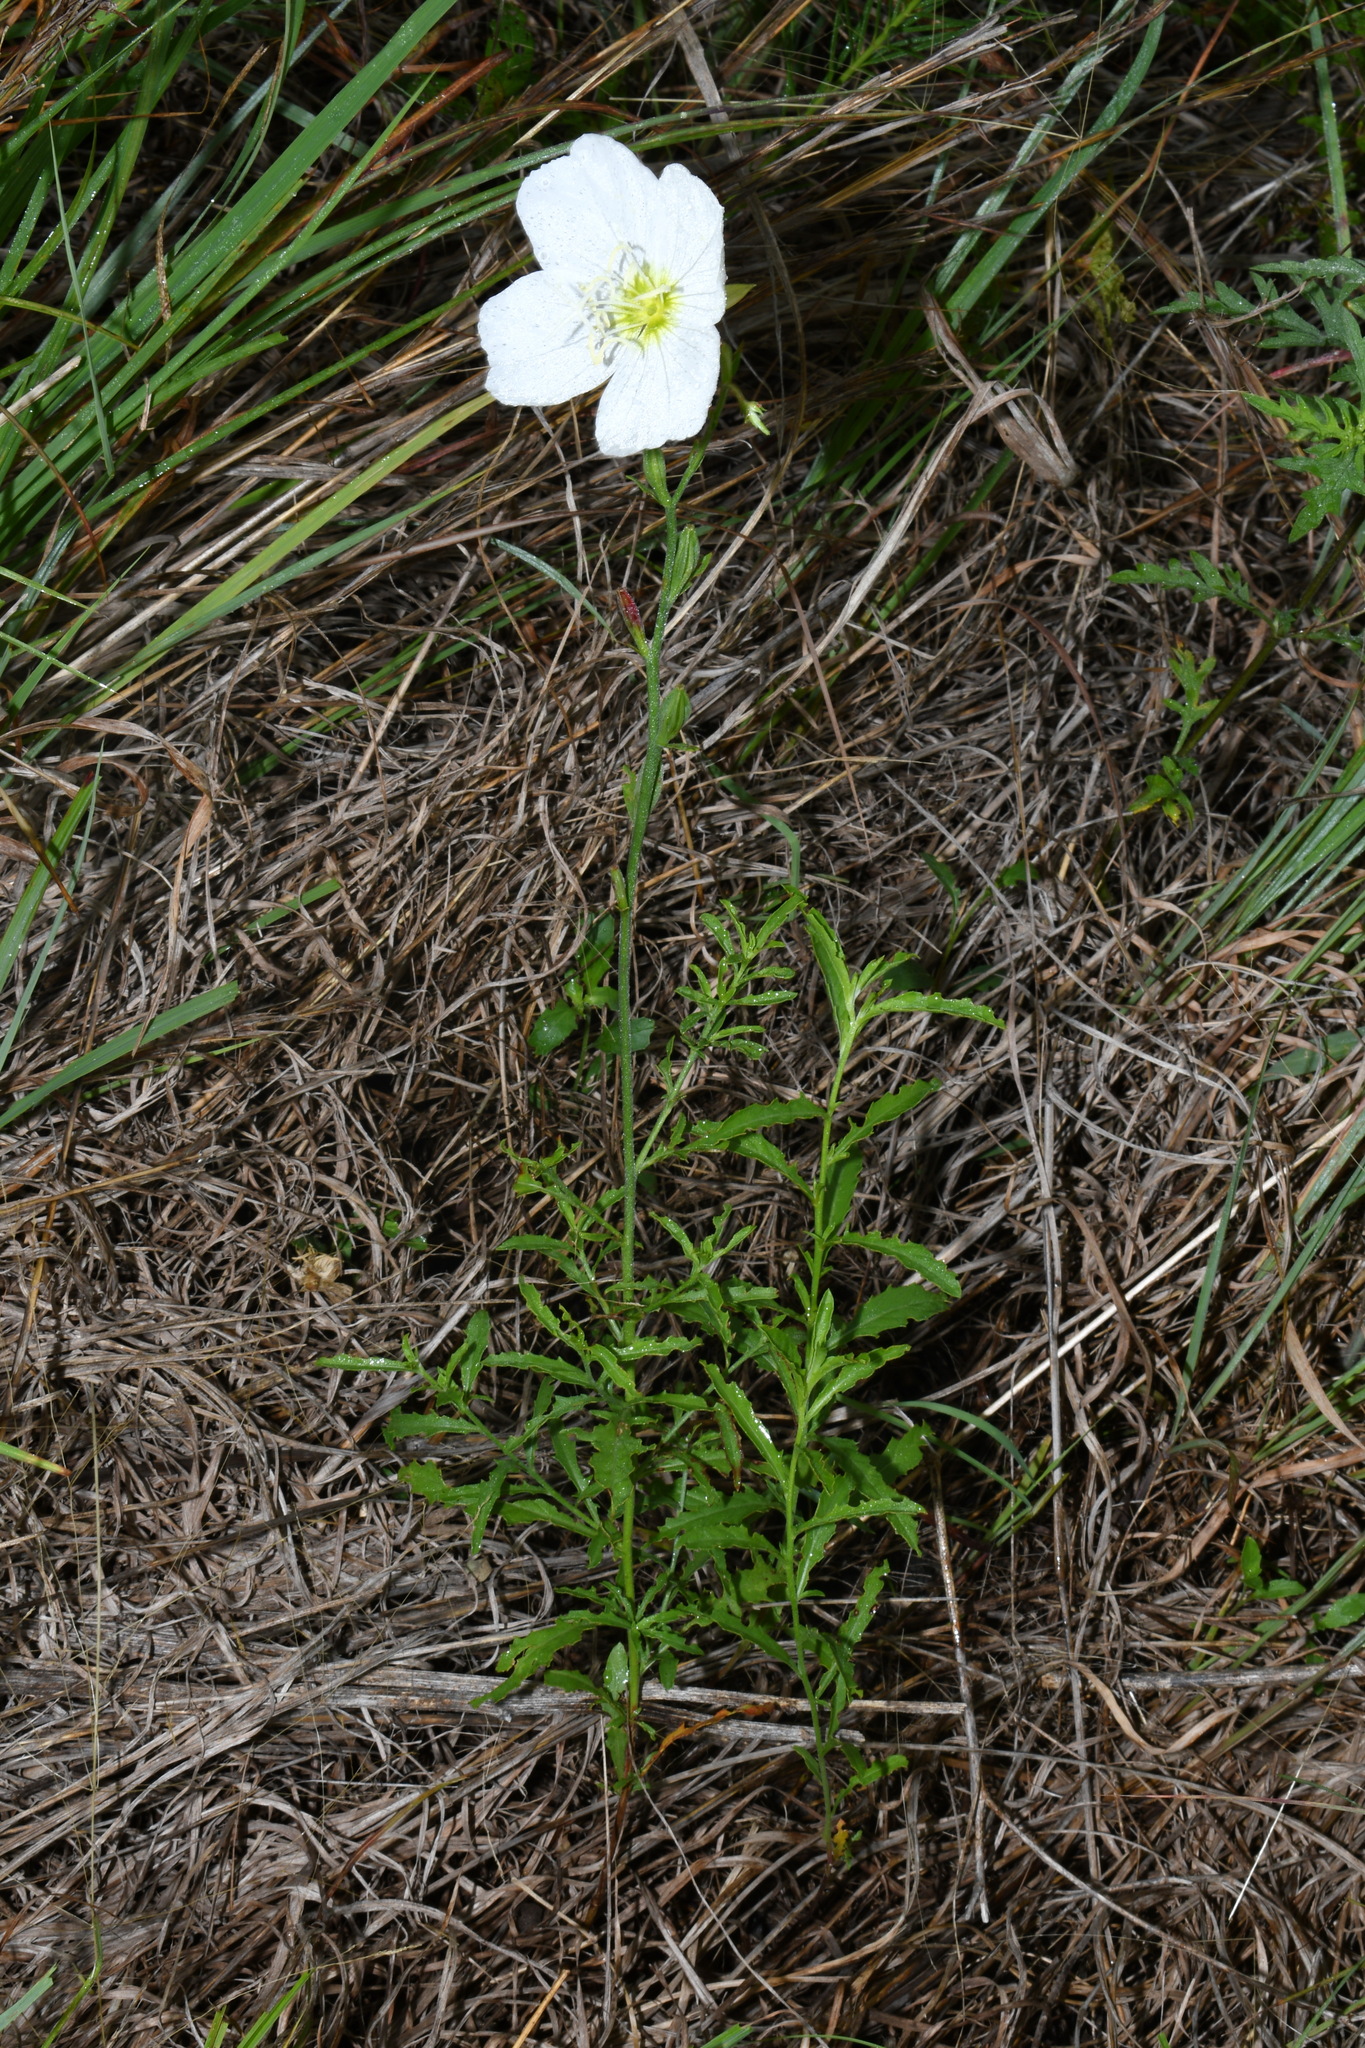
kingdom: Plantae
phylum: Tracheophyta
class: Magnoliopsida
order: Myrtales
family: Onagraceae
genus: Oenothera
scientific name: Oenothera speciosa
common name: White evening-primrose
